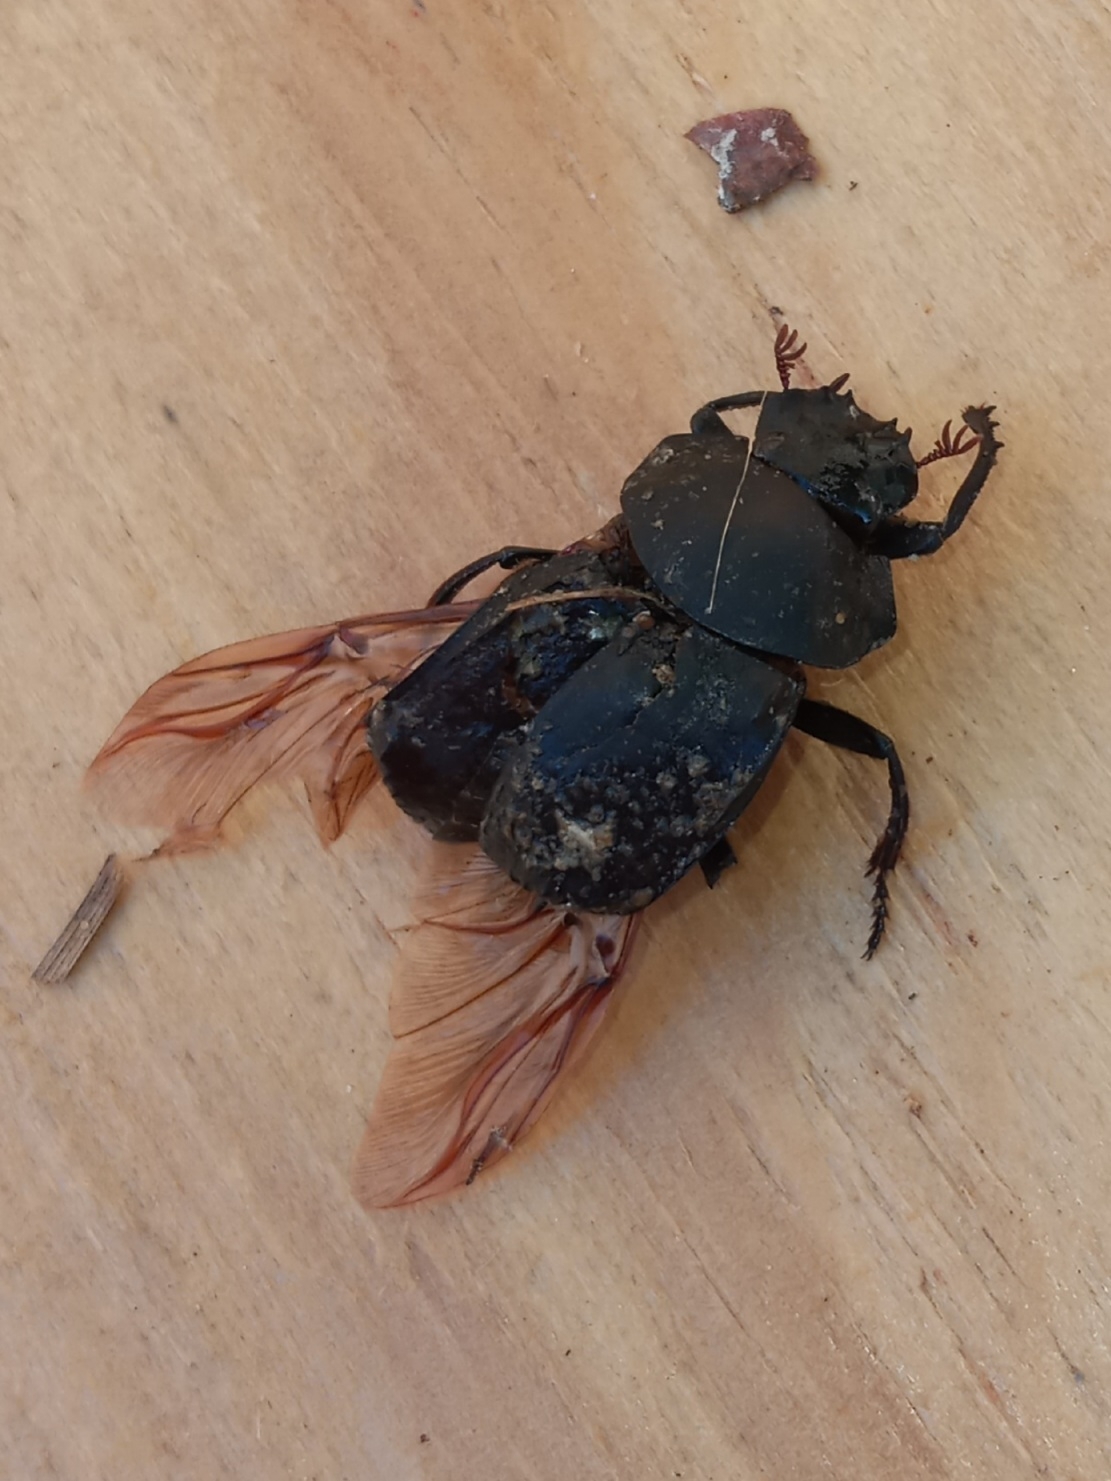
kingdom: Animalia
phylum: Arthropoda
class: Insecta
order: Coleoptera
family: Scarabaeidae
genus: Deltochilum
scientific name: Deltochilum gibbosum
